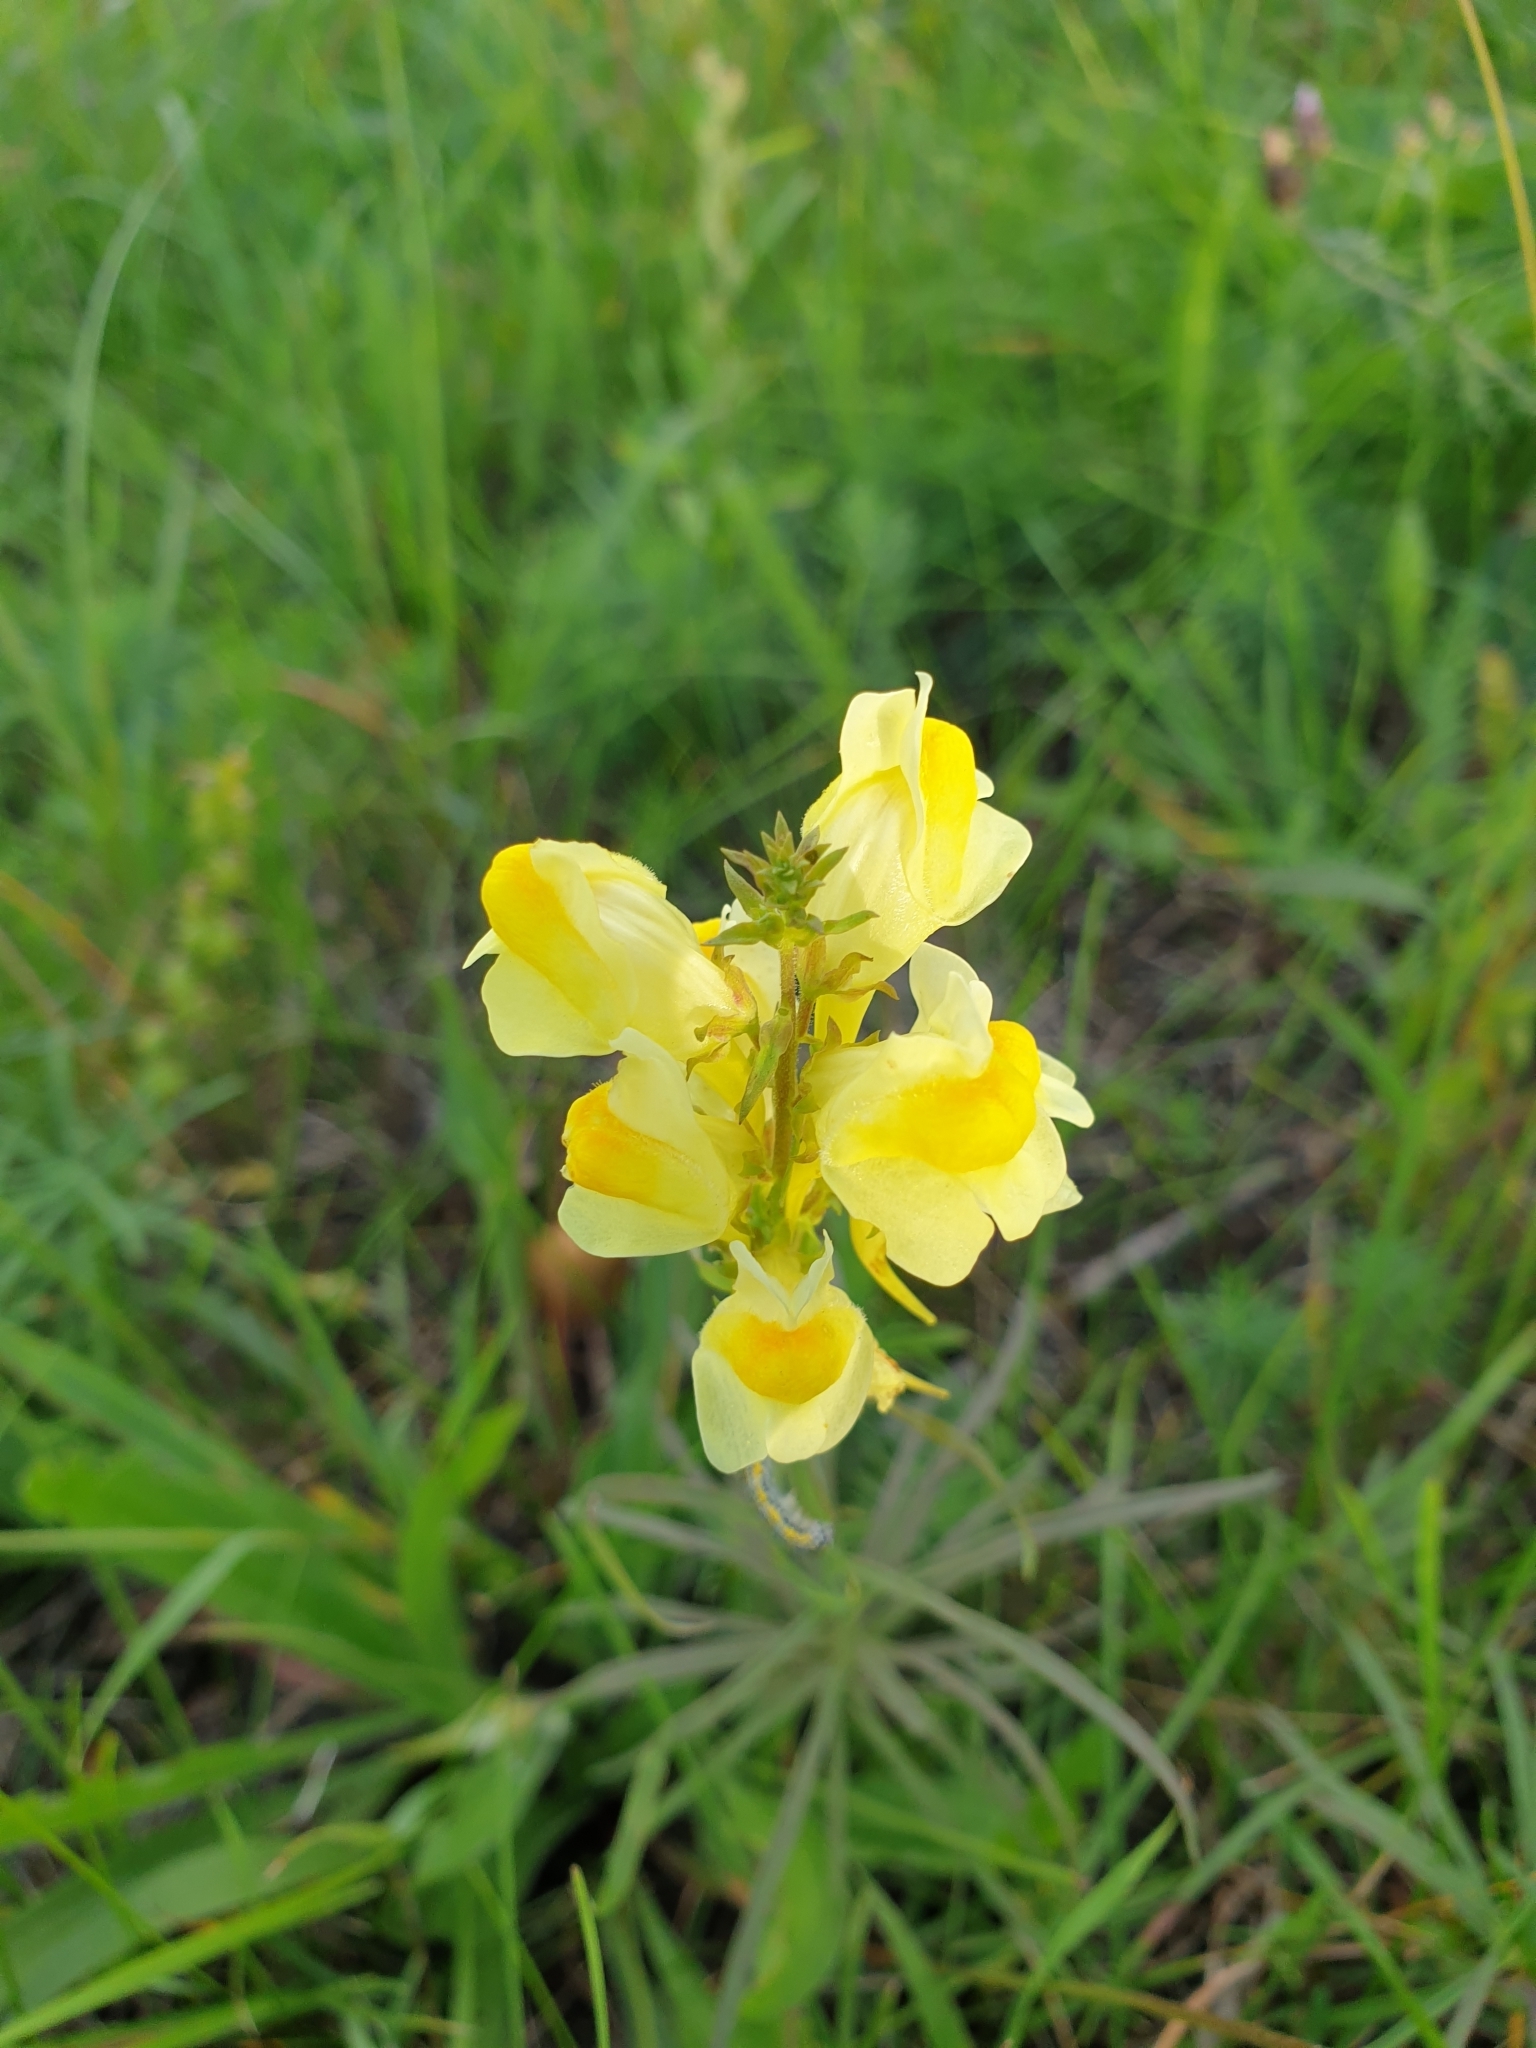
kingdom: Plantae
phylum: Tracheophyta
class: Magnoliopsida
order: Lamiales
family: Plantaginaceae
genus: Linaria
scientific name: Linaria vulgaris
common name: Butter and eggs
